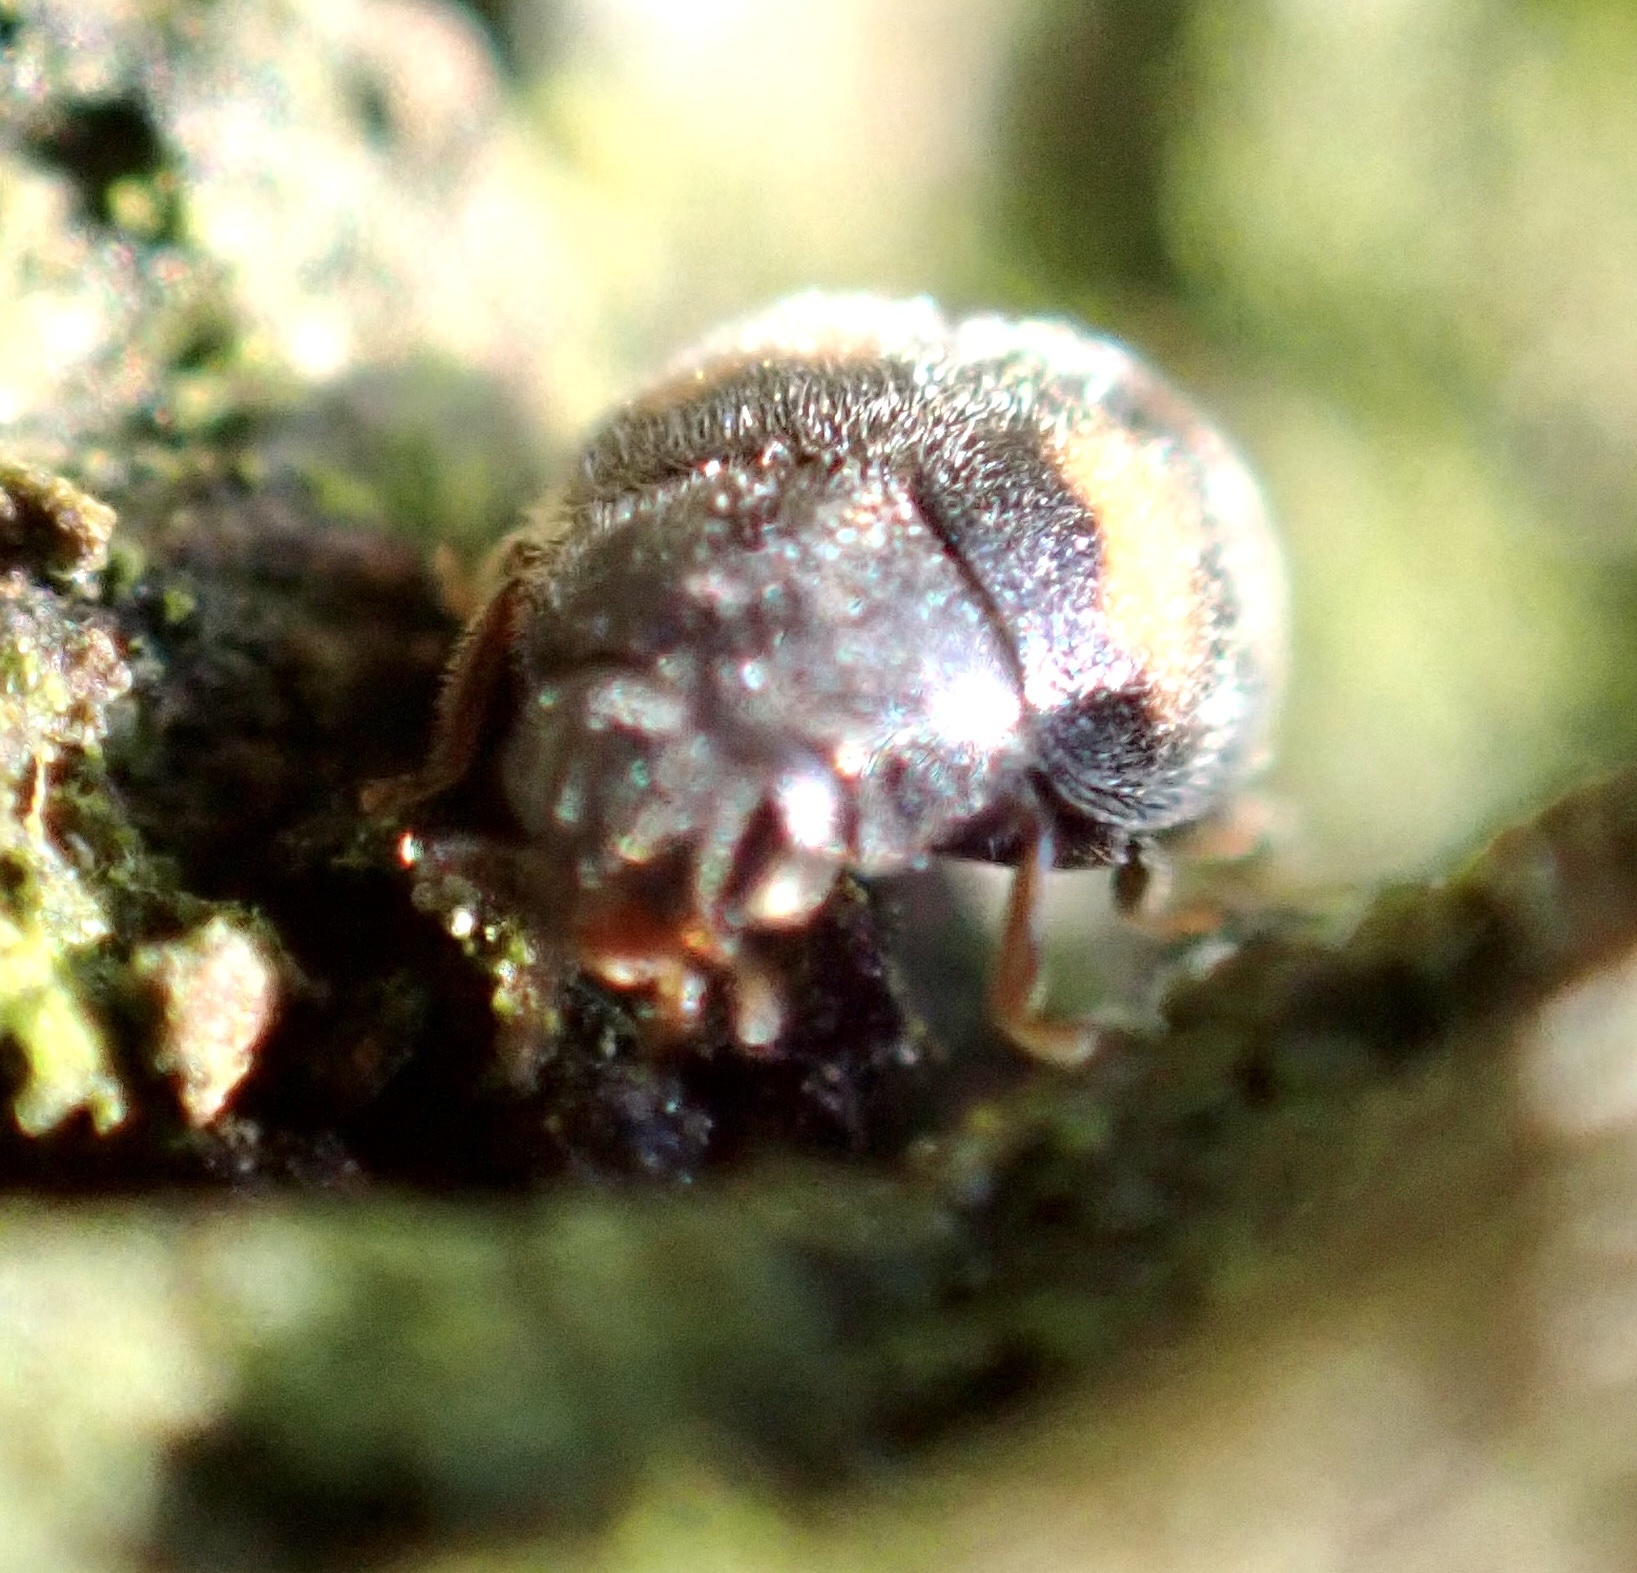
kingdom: Animalia
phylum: Arthropoda
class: Insecta
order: Coleoptera
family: Coccinellidae
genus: Nephus
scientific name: Nephus quadrimaculatus
